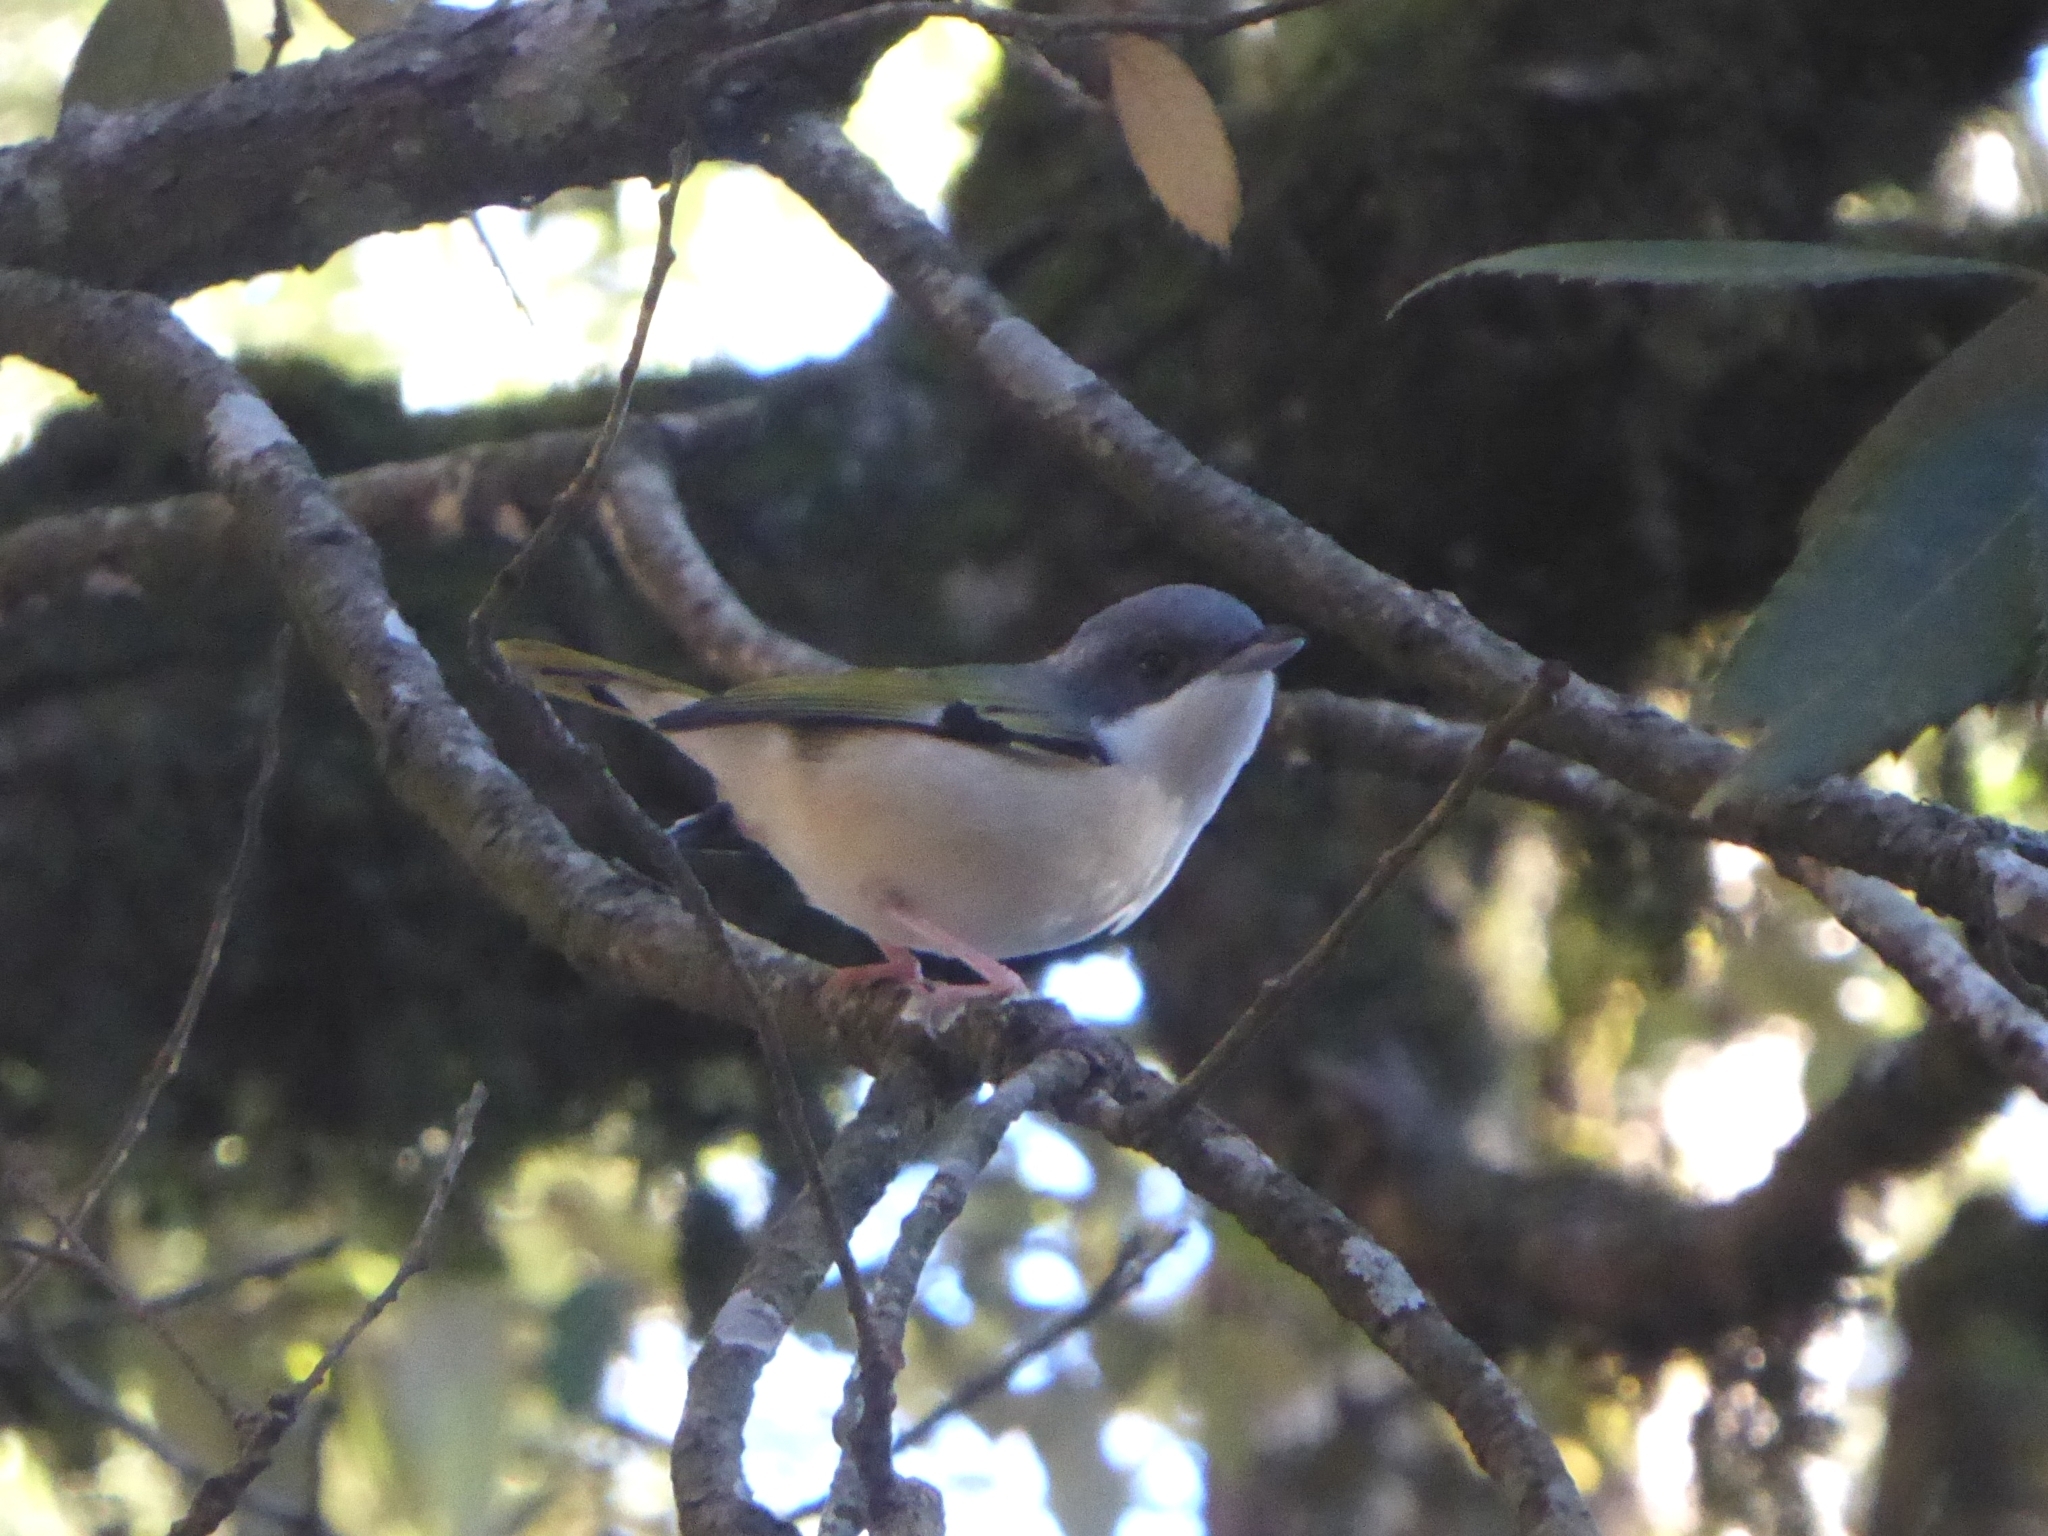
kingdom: Animalia
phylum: Chordata
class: Aves
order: Passeriformes
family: Vireonidae
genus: Pteruthius
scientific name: Pteruthius aeralatus
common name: Blyth's shrike-babbler
